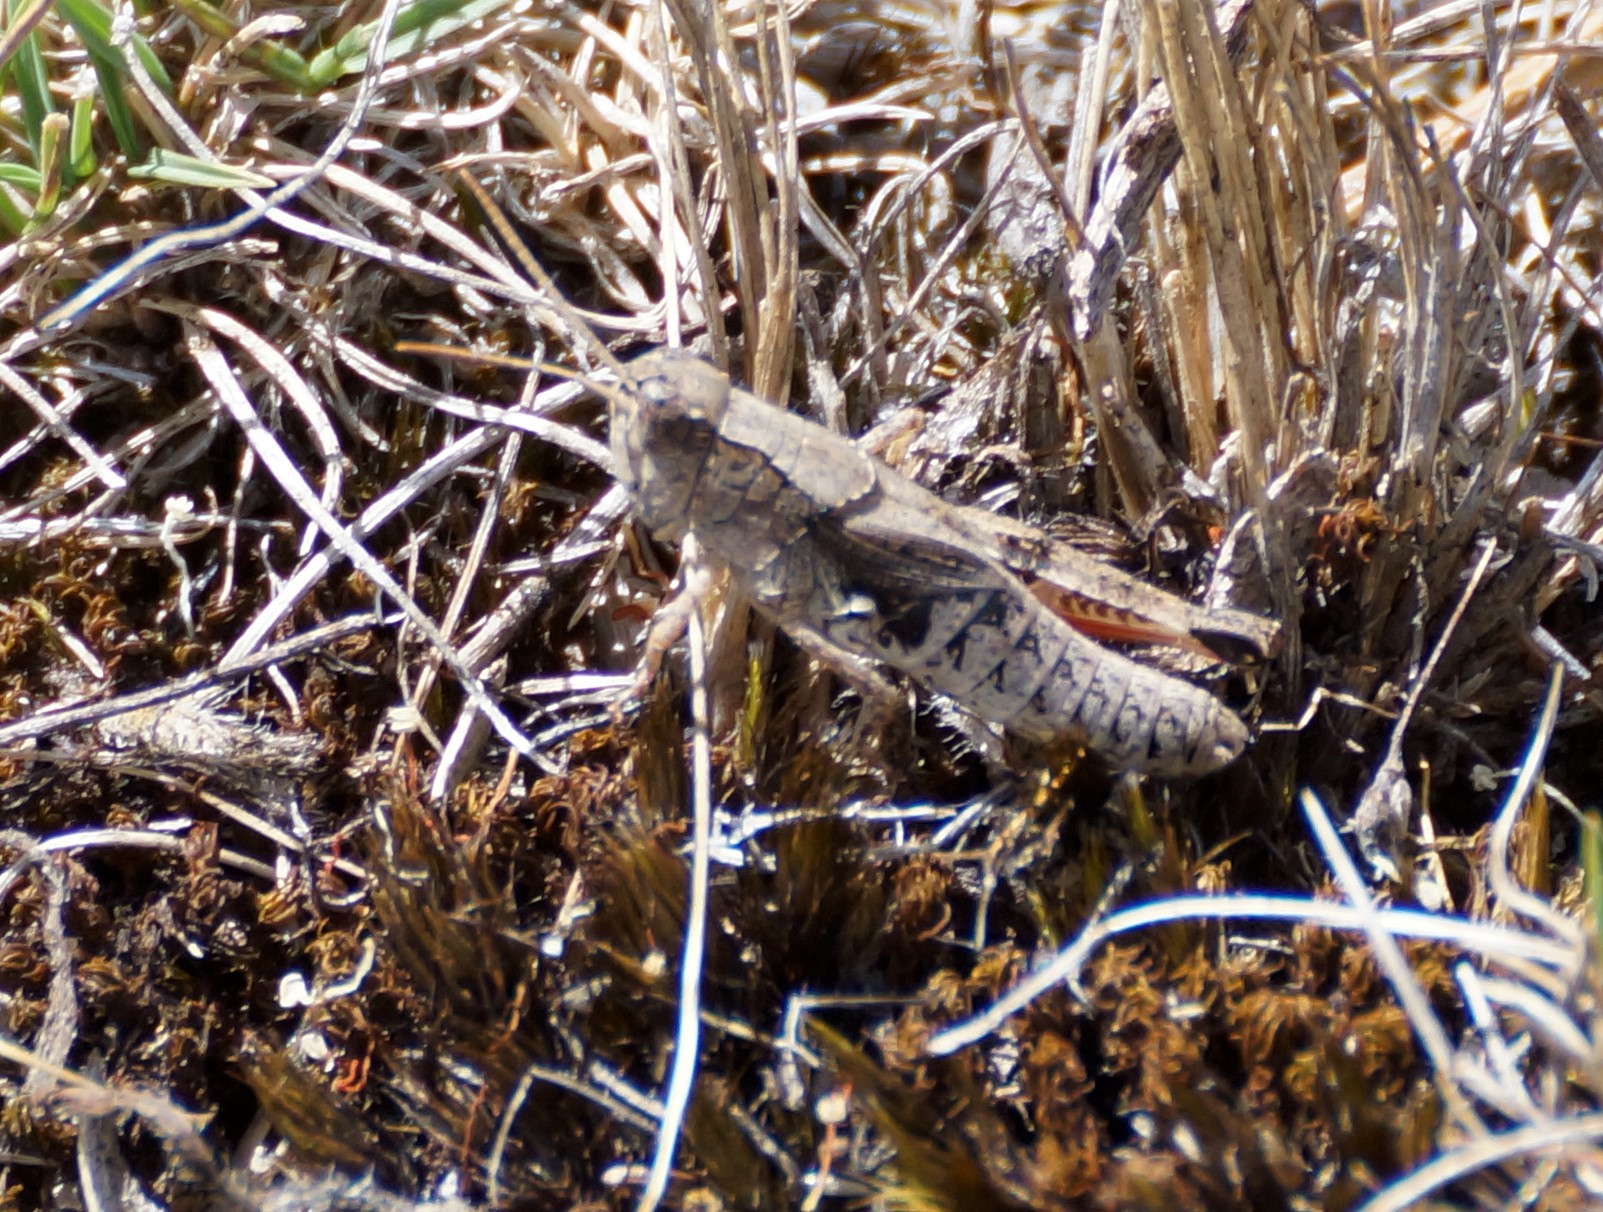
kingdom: Animalia
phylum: Arthropoda
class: Insecta
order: Orthoptera
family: Acrididae
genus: Phaulacridium
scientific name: Phaulacridium vittatum
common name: Wingless grasshopper
